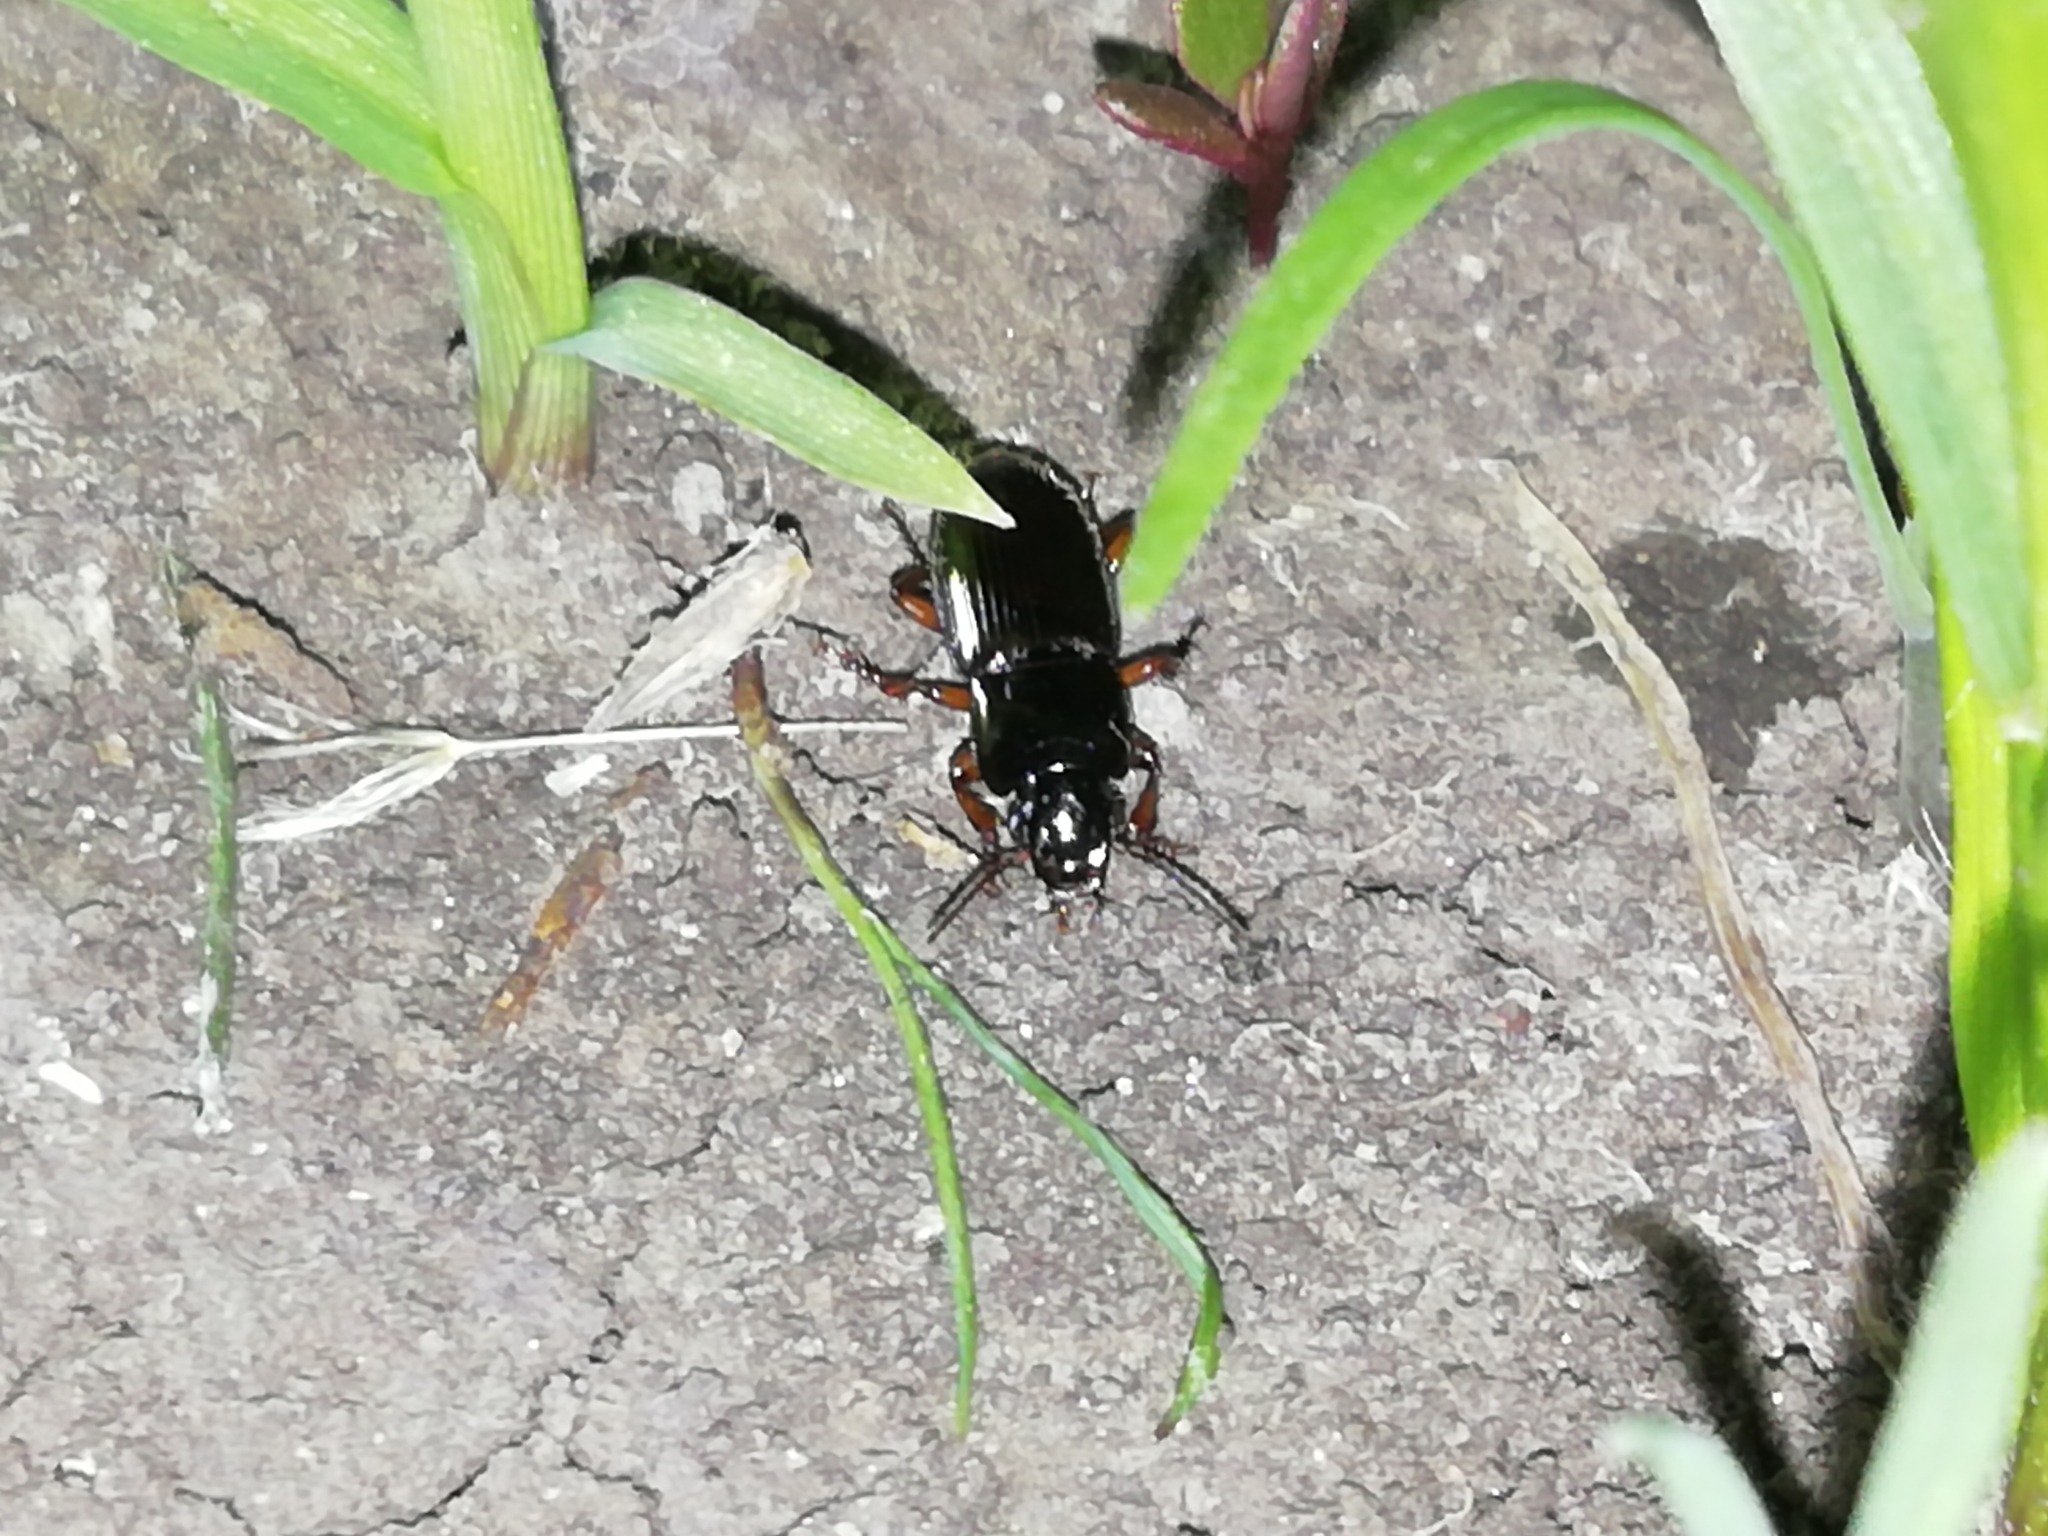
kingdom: Animalia
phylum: Arthropoda
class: Insecta
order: Coleoptera
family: Carabidae
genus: Harpalus
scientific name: Harpalus affinis
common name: Polychrome harp ground beetle
